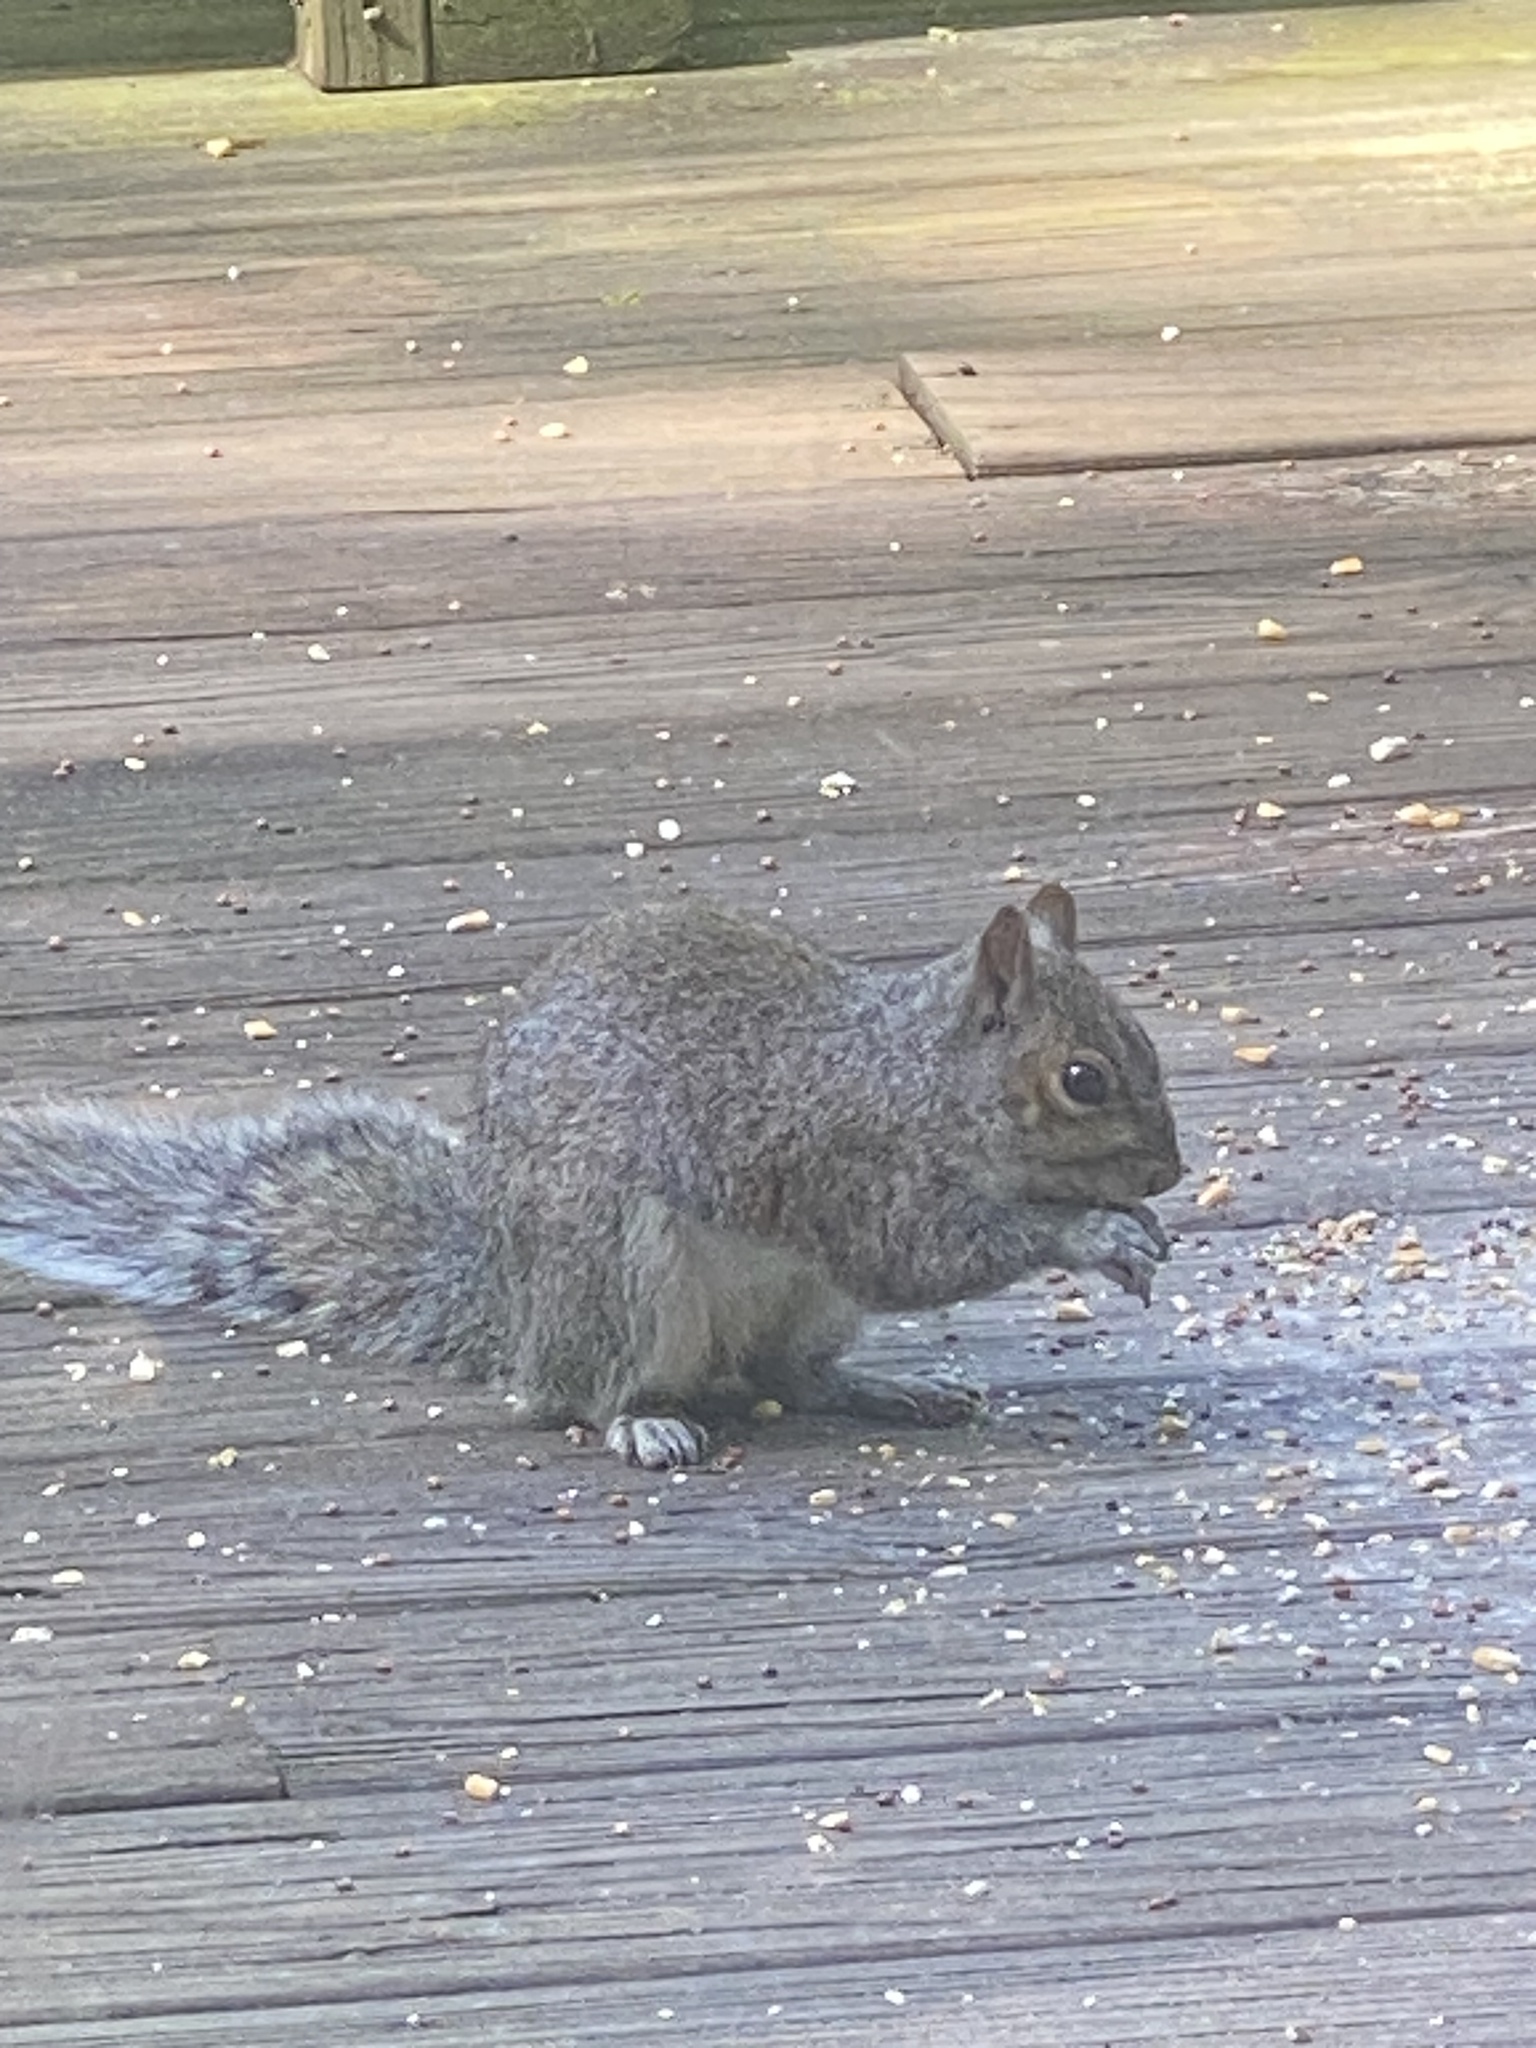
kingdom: Animalia
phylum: Chordata
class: Mammalia
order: Rodentia
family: Sciuridae
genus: Sciurus
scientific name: Sciurus carolinensis
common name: Eastern gray squirrel
